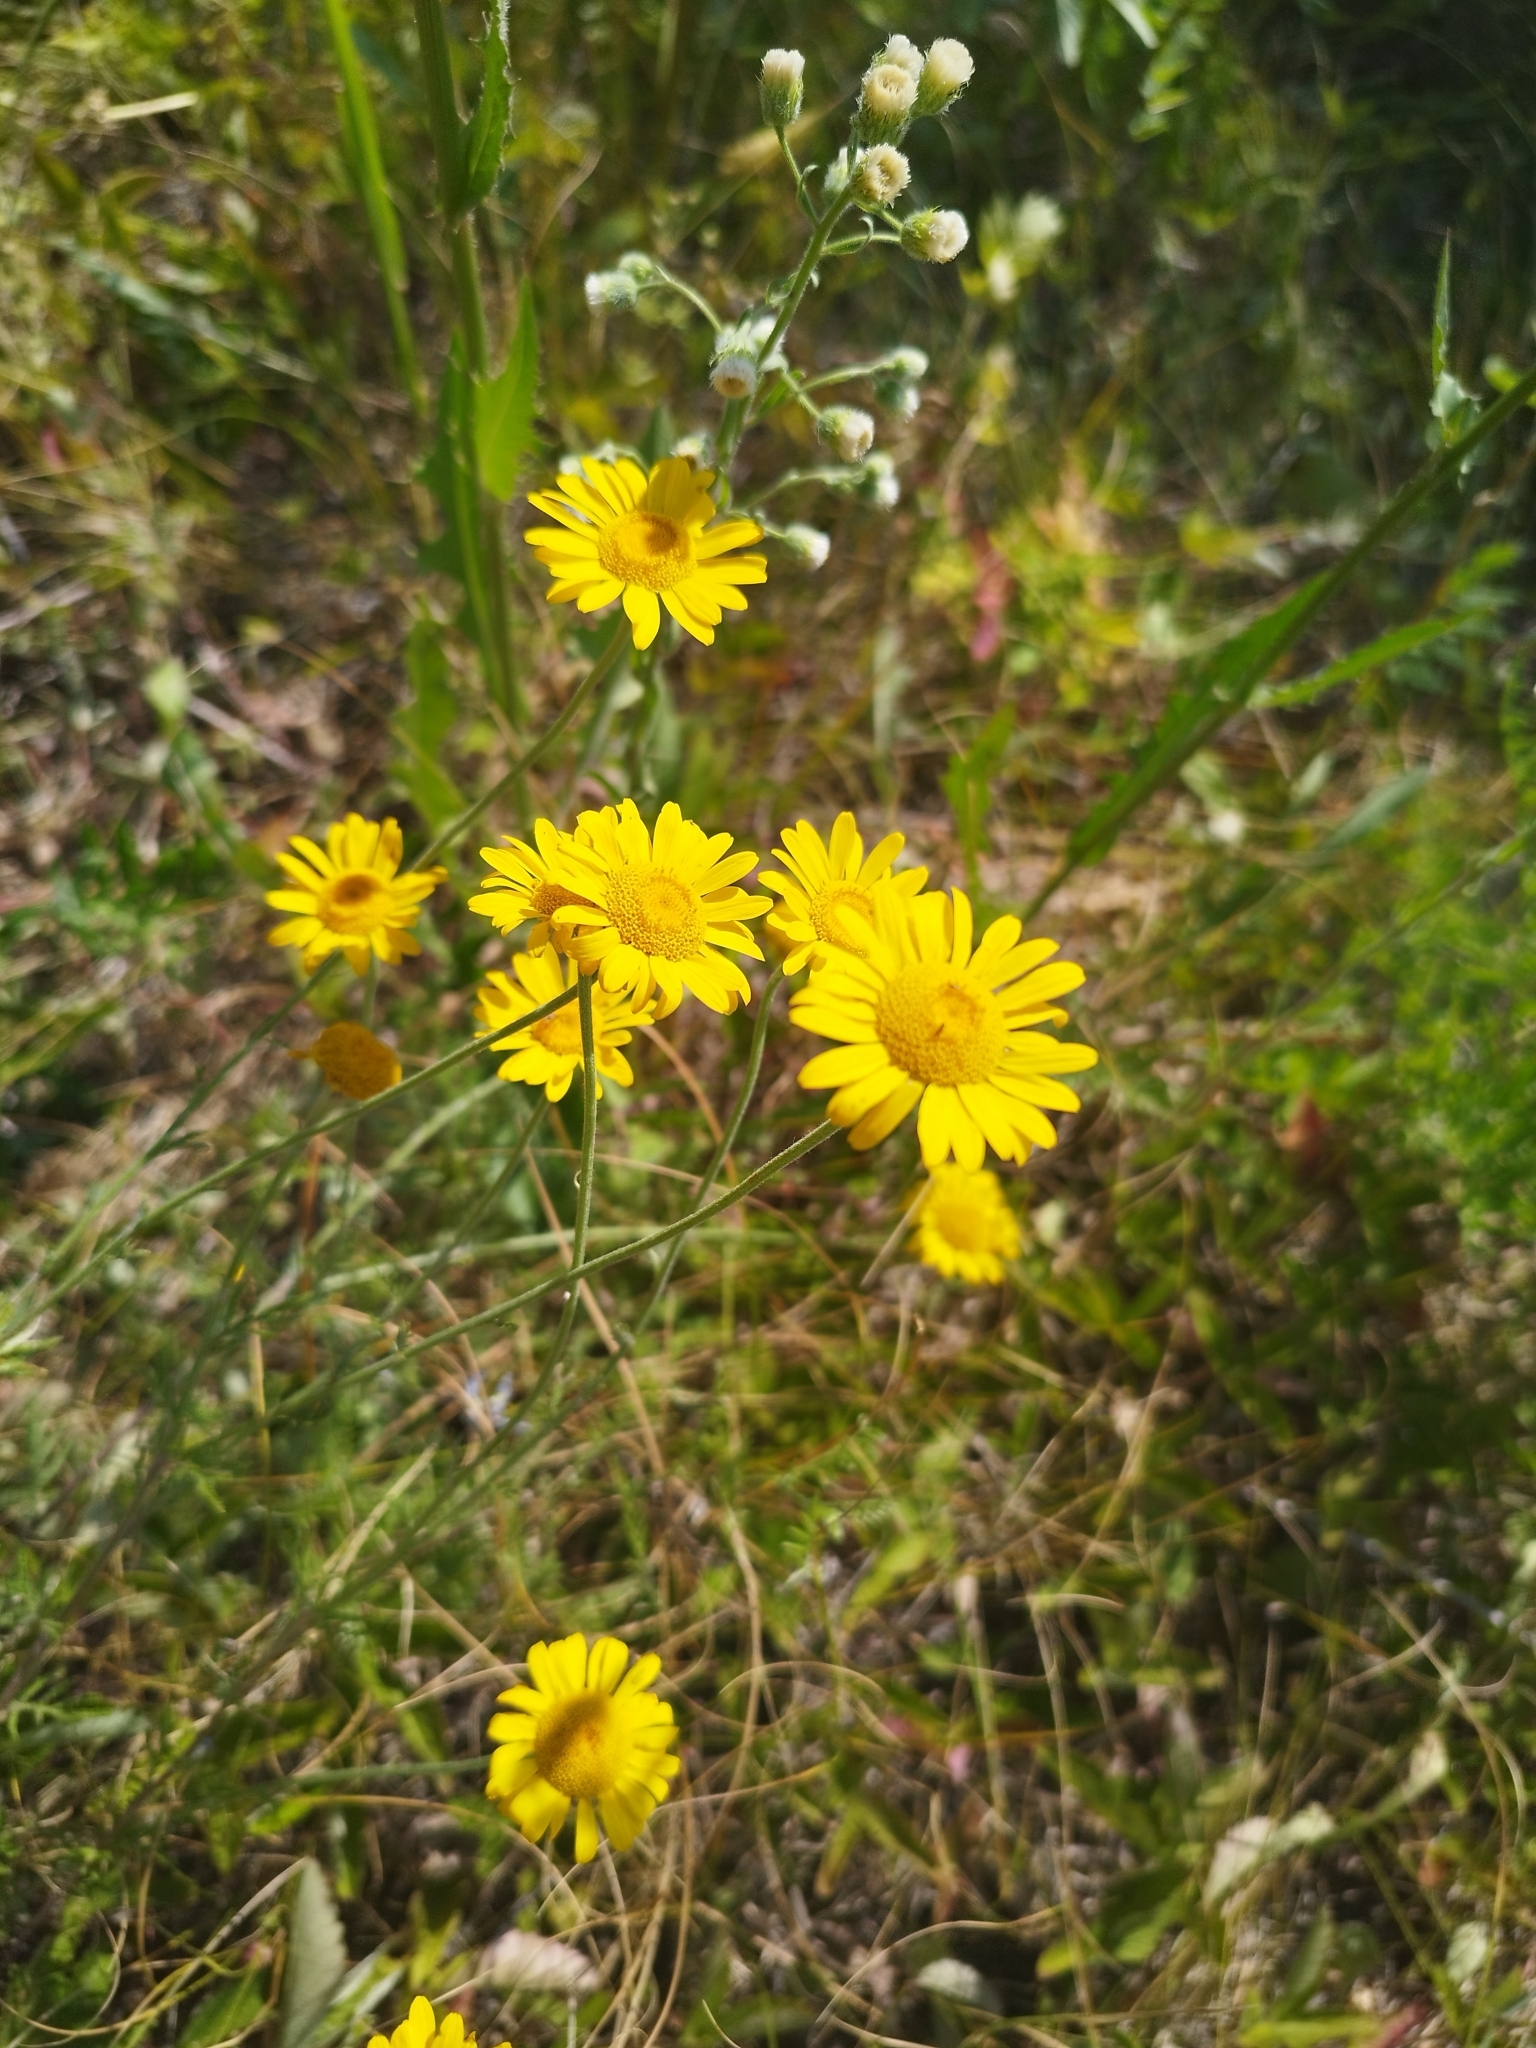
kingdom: Plantae
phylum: Tracheophyta
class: Magnoliopsida
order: Asterales
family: Asteraceae
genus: Cota
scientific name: Cota tinctoria
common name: Golden chamomile
